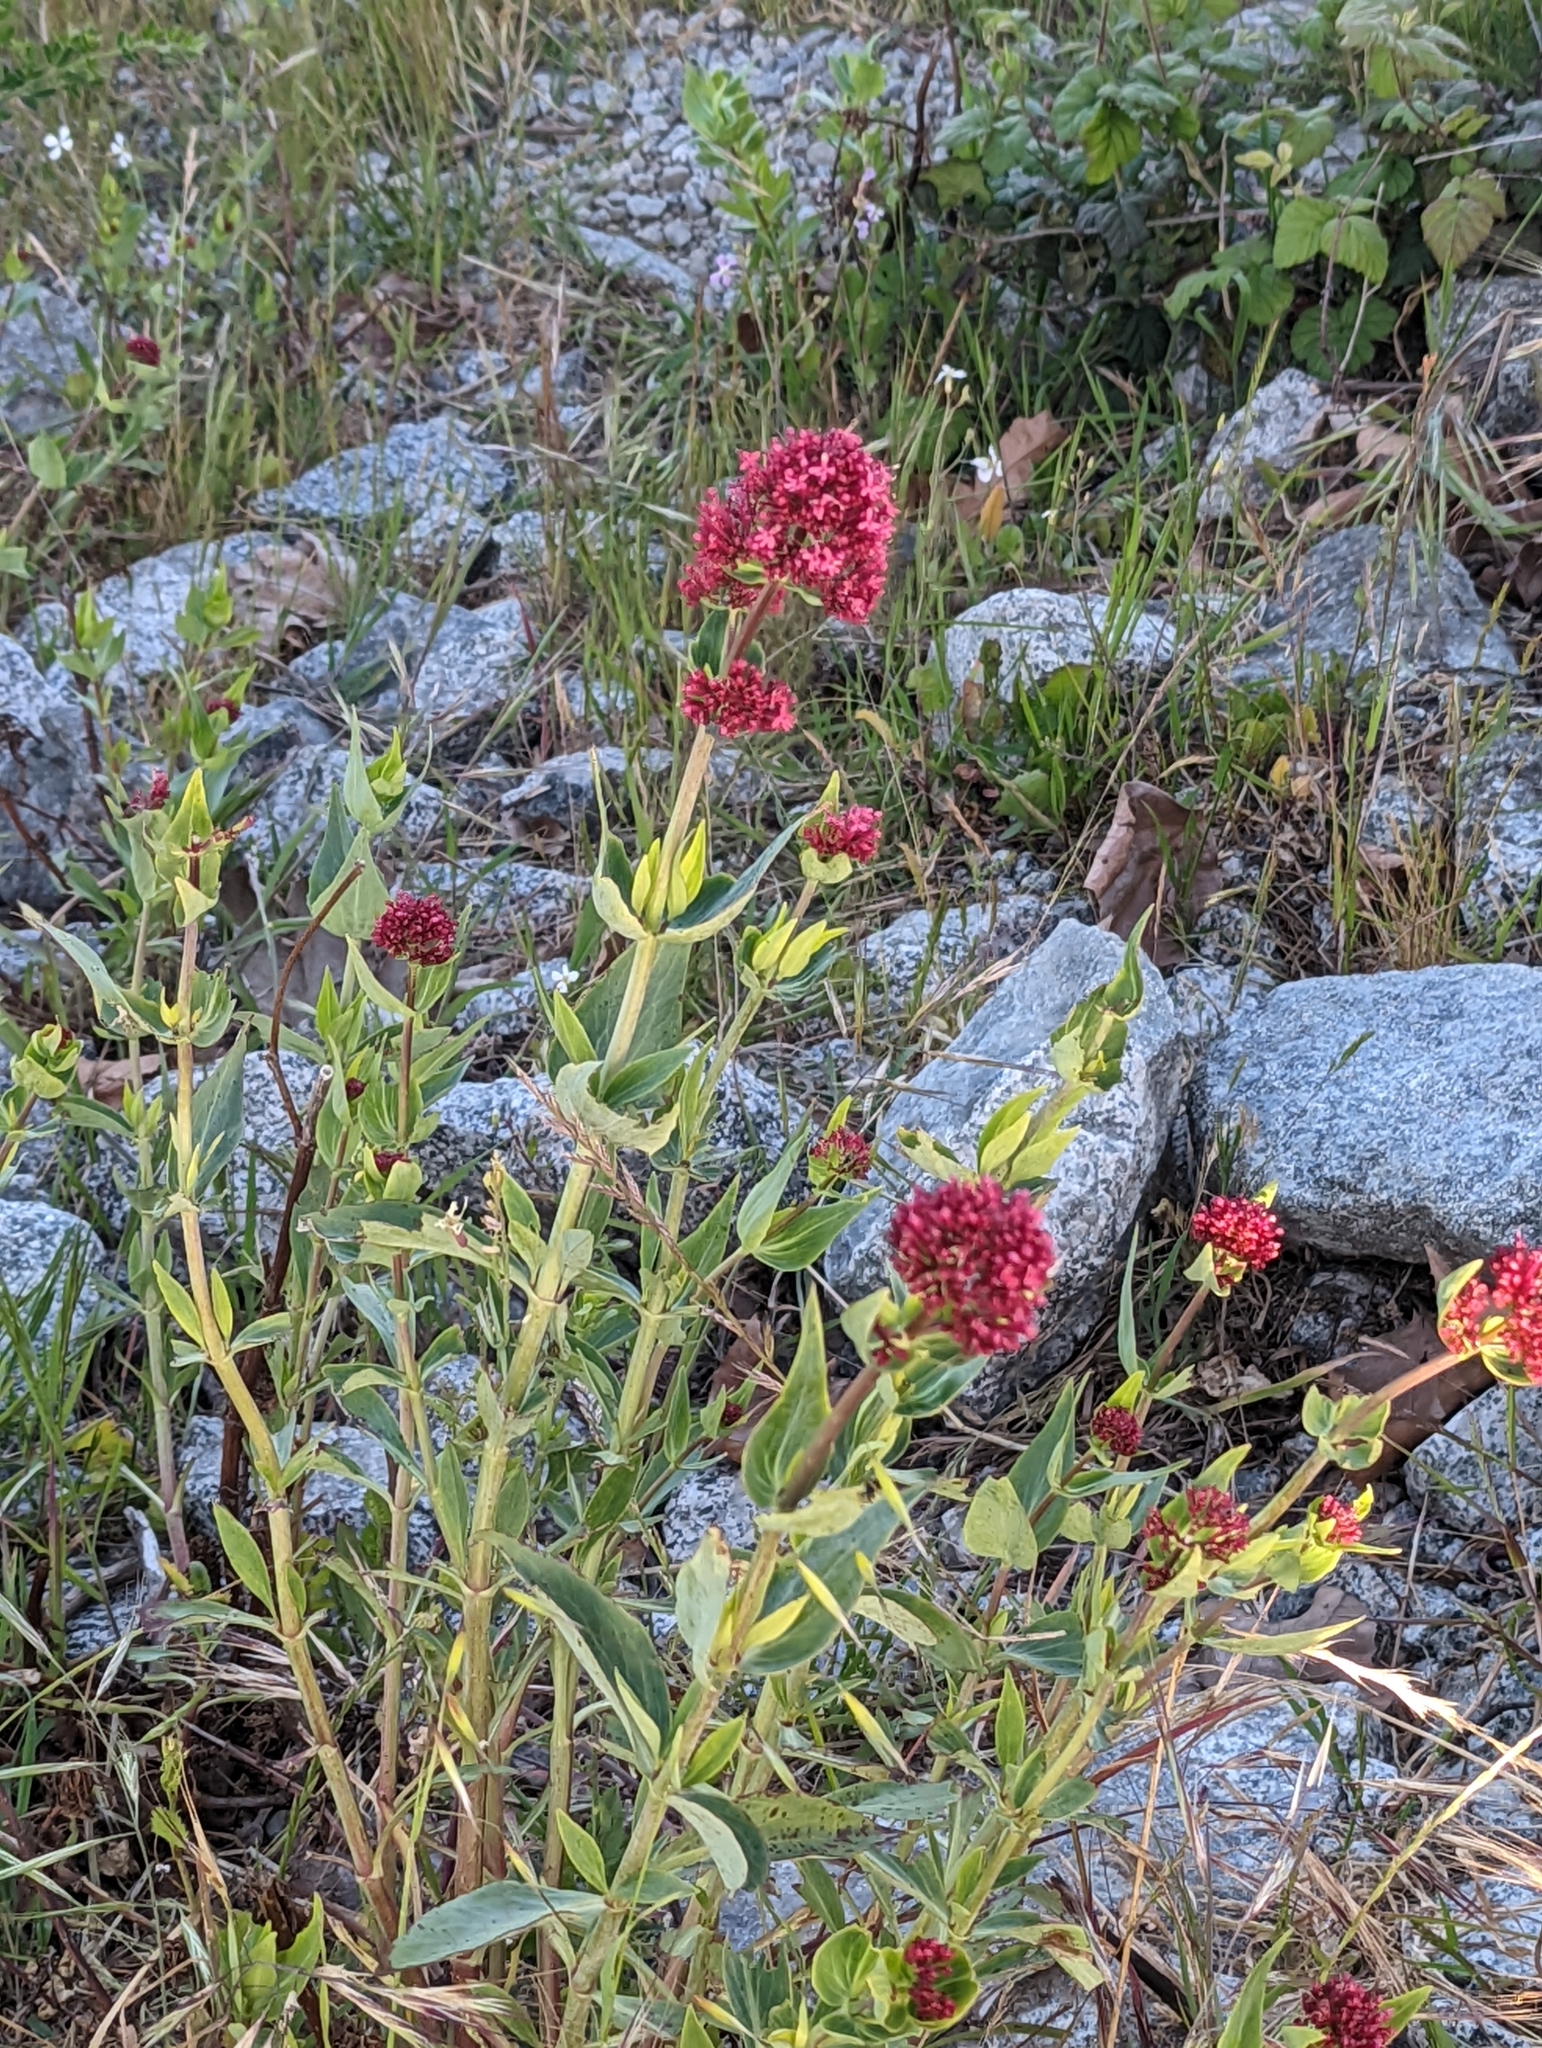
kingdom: Plantae
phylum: Tracheophyta
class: Magnoliopsida
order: Dipsacales
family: Caprifoliaceae
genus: Centranthus
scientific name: Centranthus ruber
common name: Red valerian
